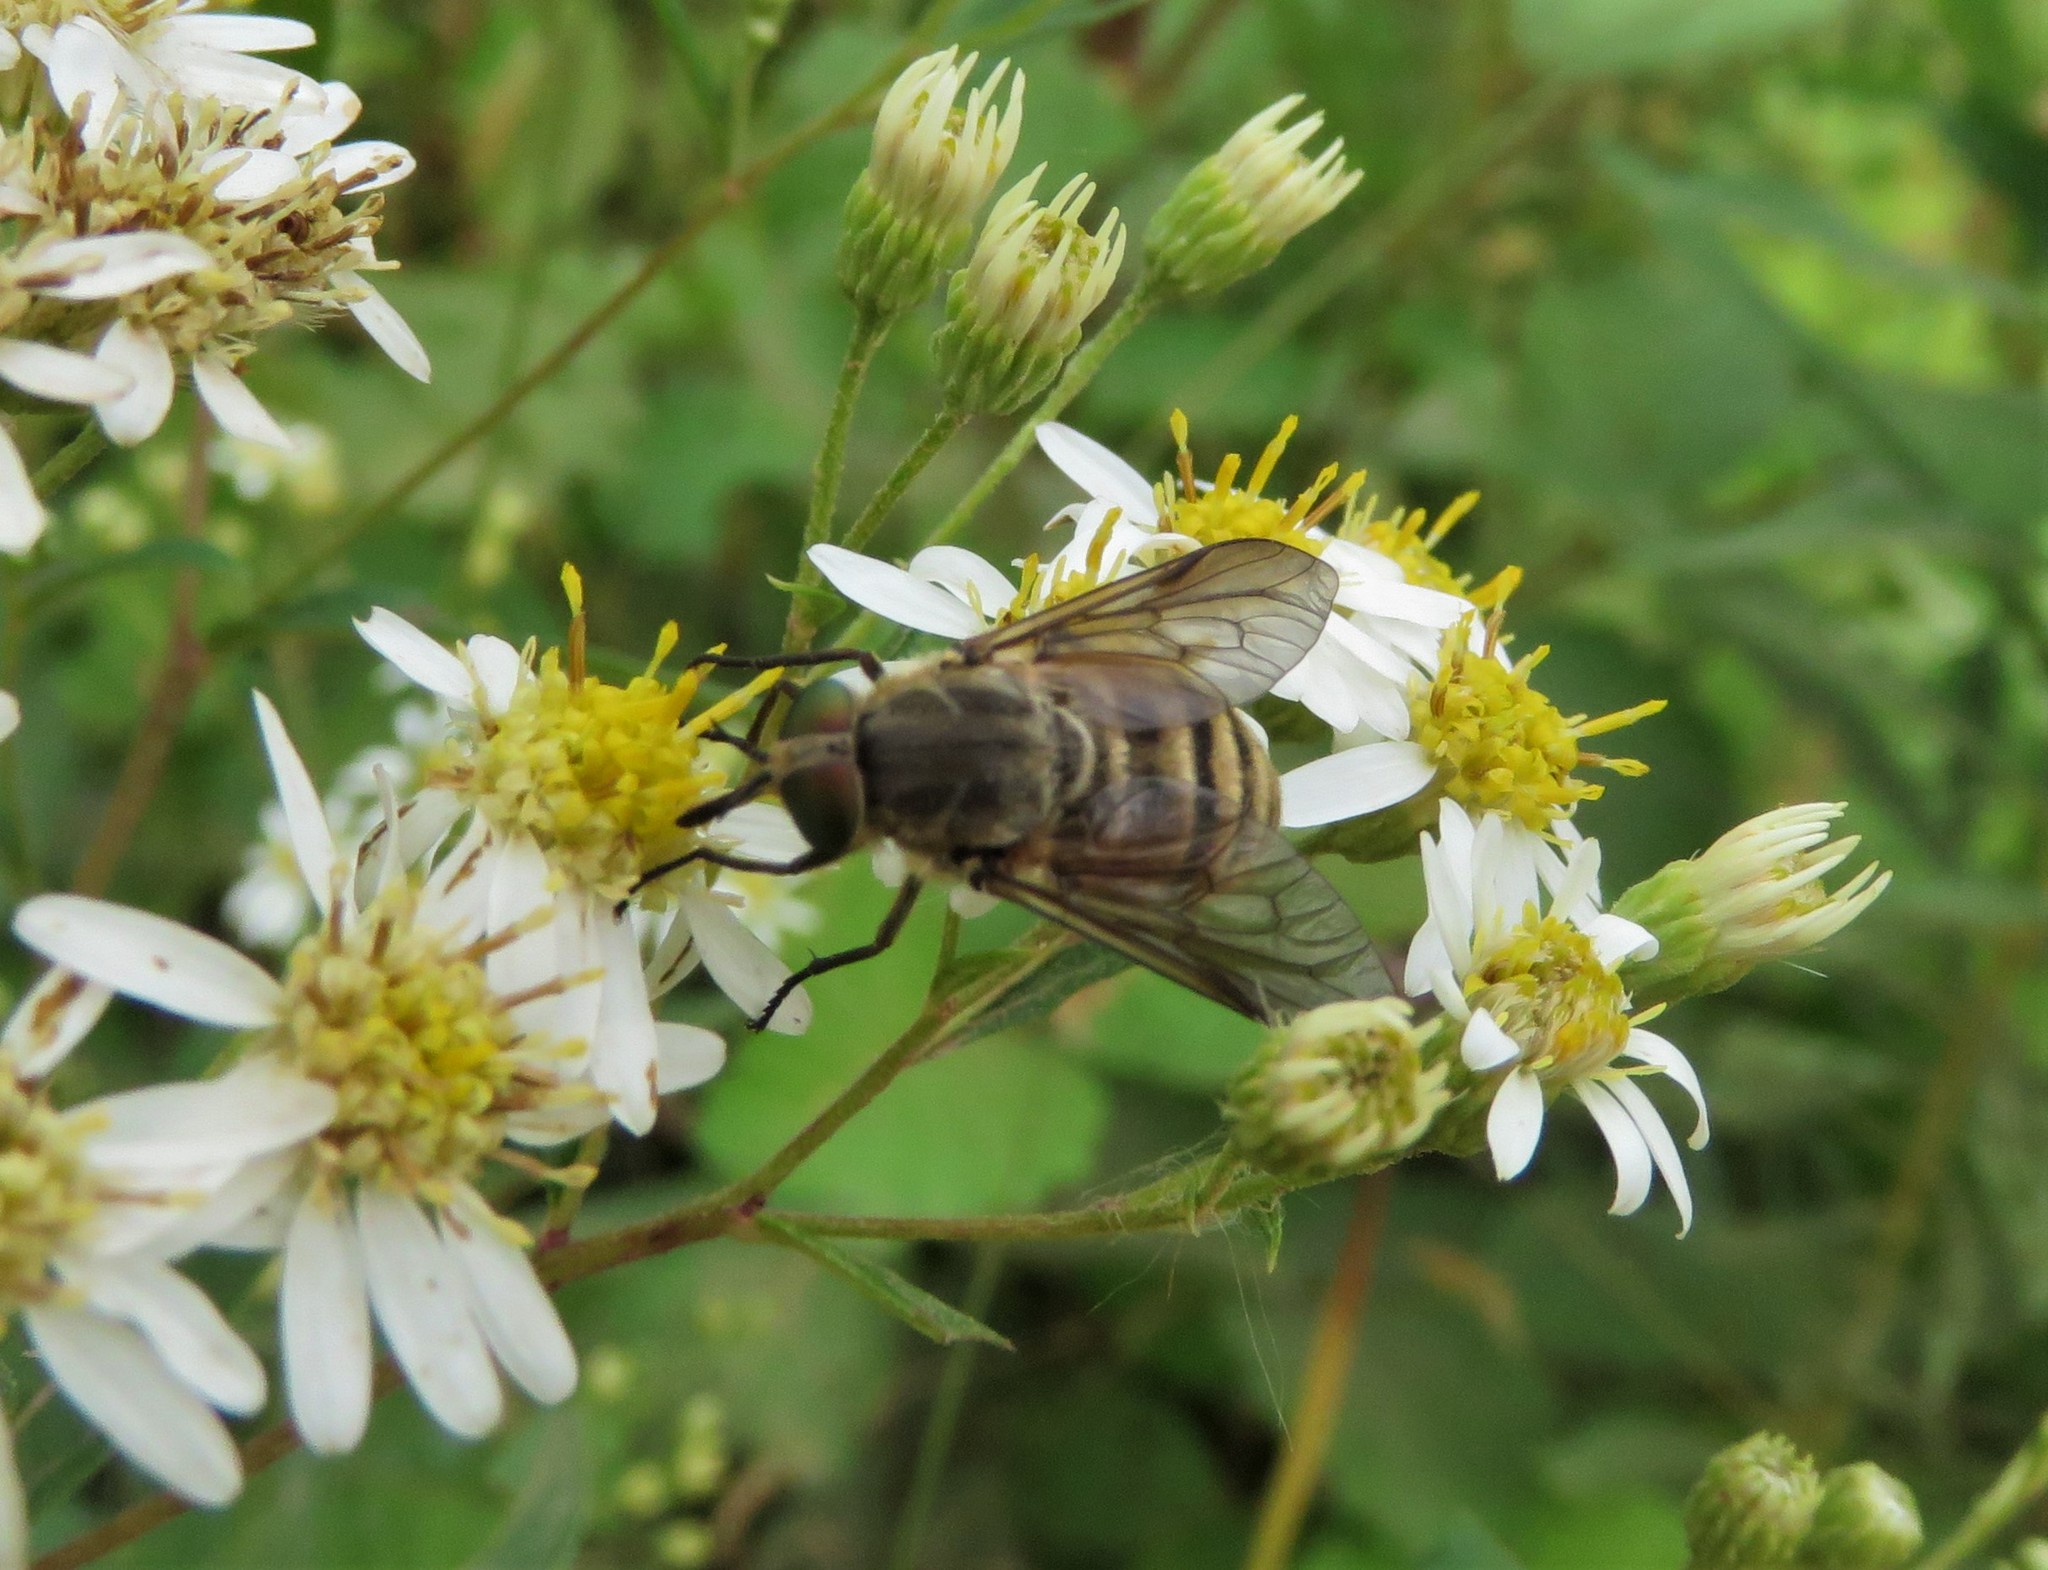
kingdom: Animalia
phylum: Arthropoda
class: Insecta
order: Diptera
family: Tabanidae
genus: Stonemyia
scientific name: Stonemyia tranquilla
